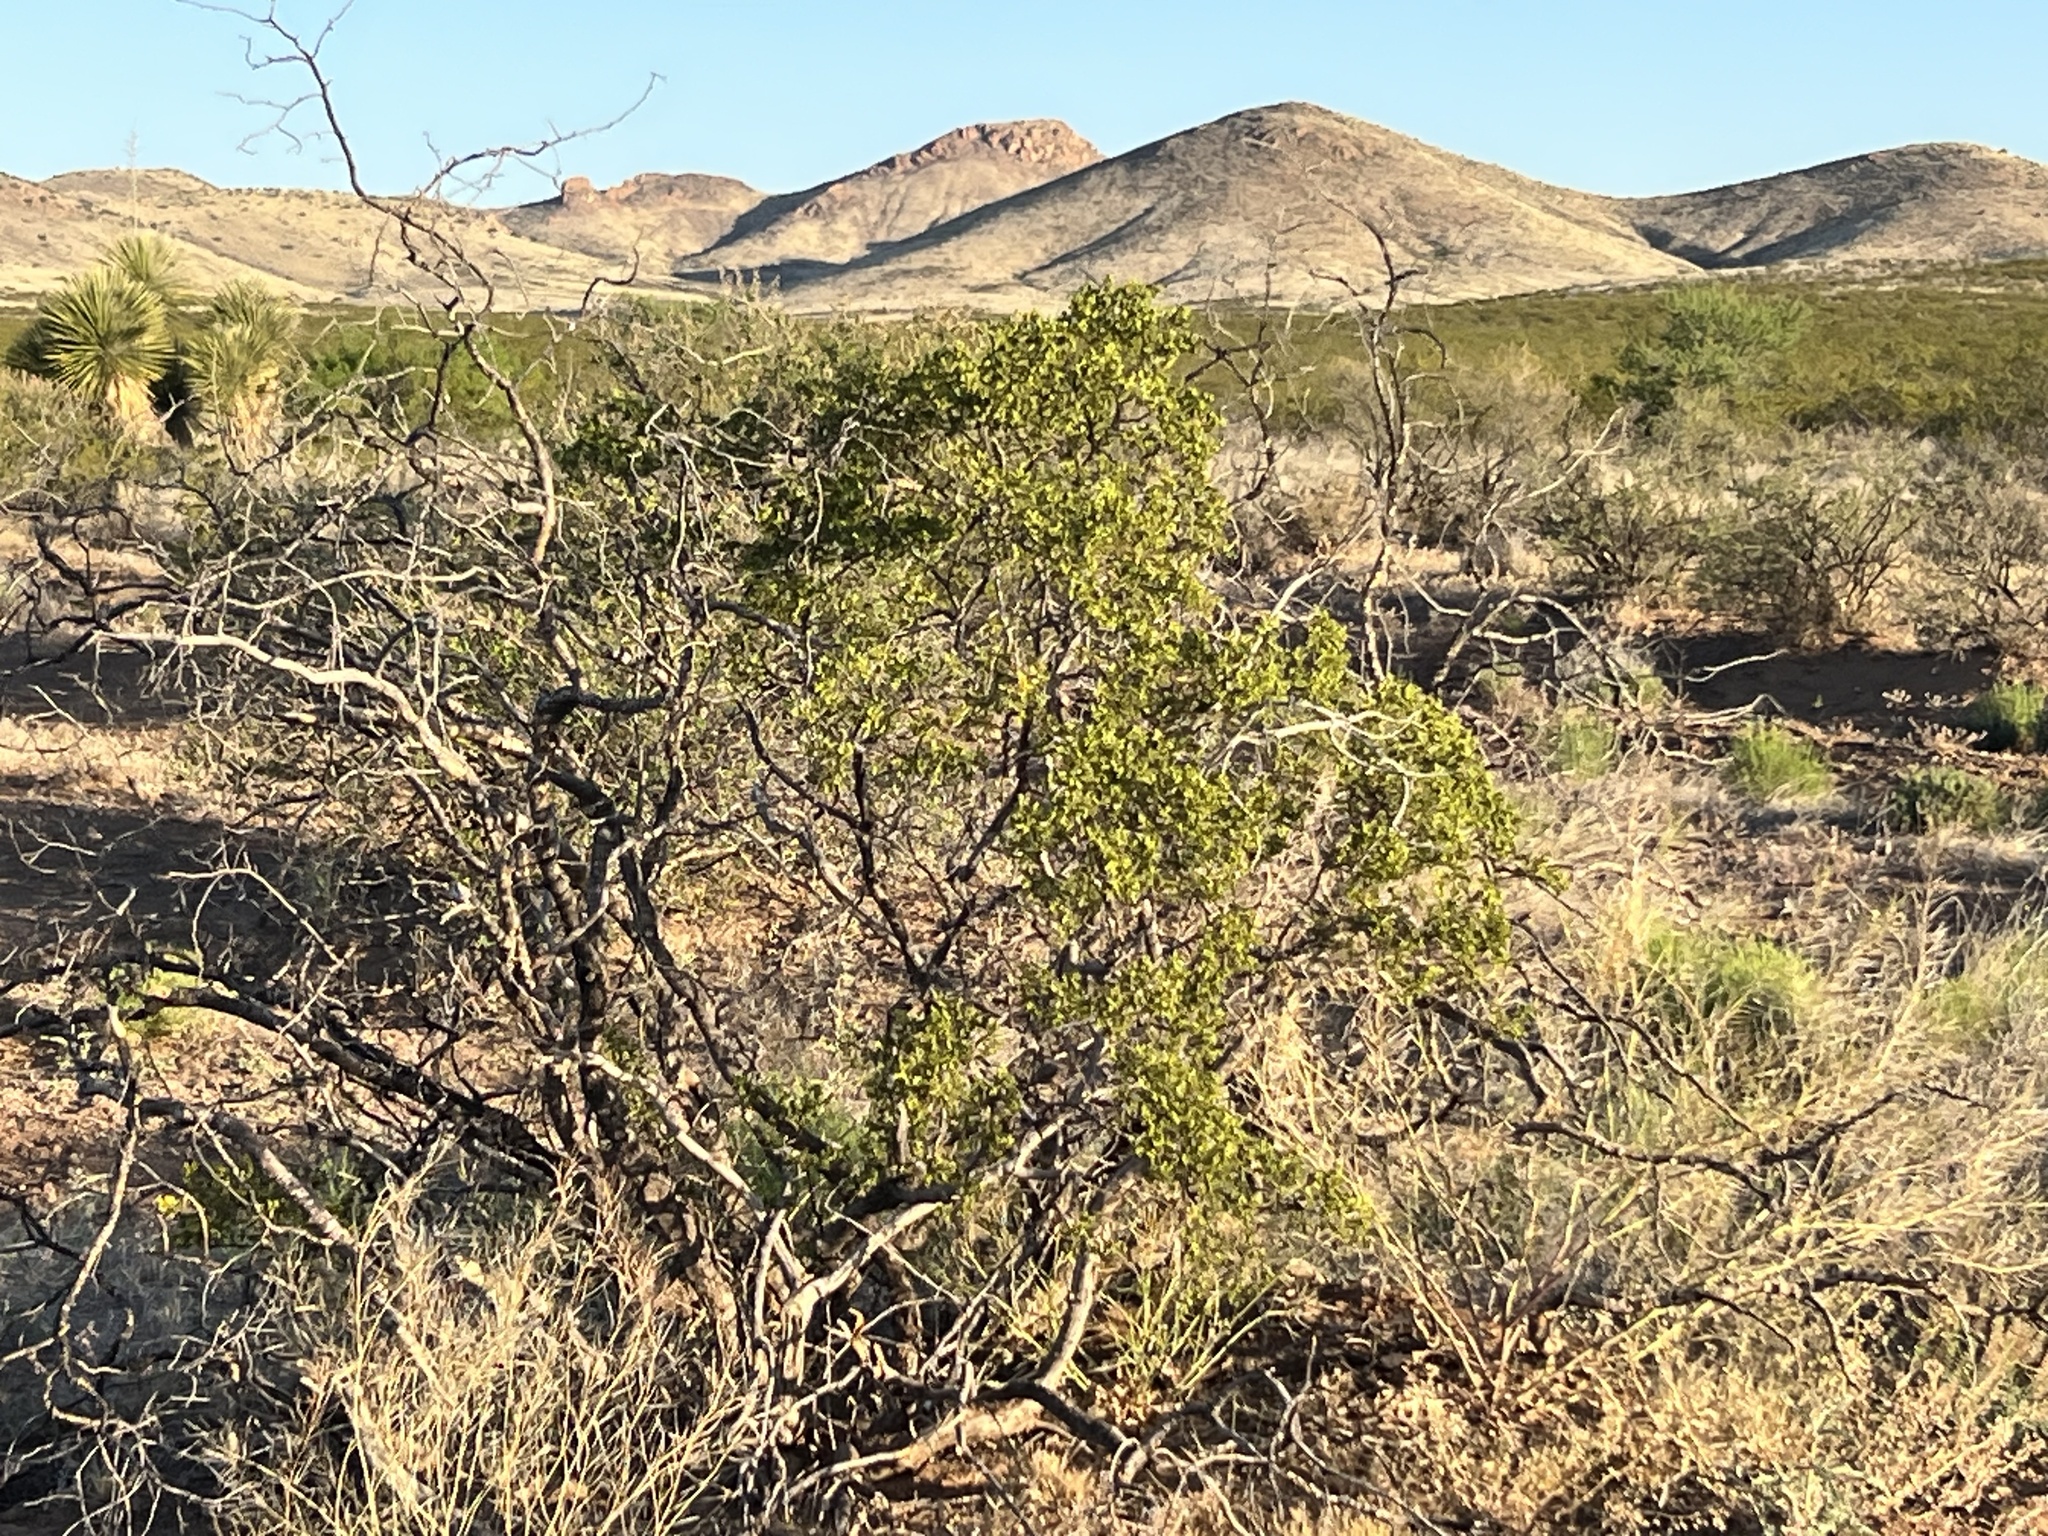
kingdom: Plantae
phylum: Tracheophyta
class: Magnoliopsida
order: Zygophyllales
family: Zygophyllaceae
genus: Larrea
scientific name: Larrea tridentata
